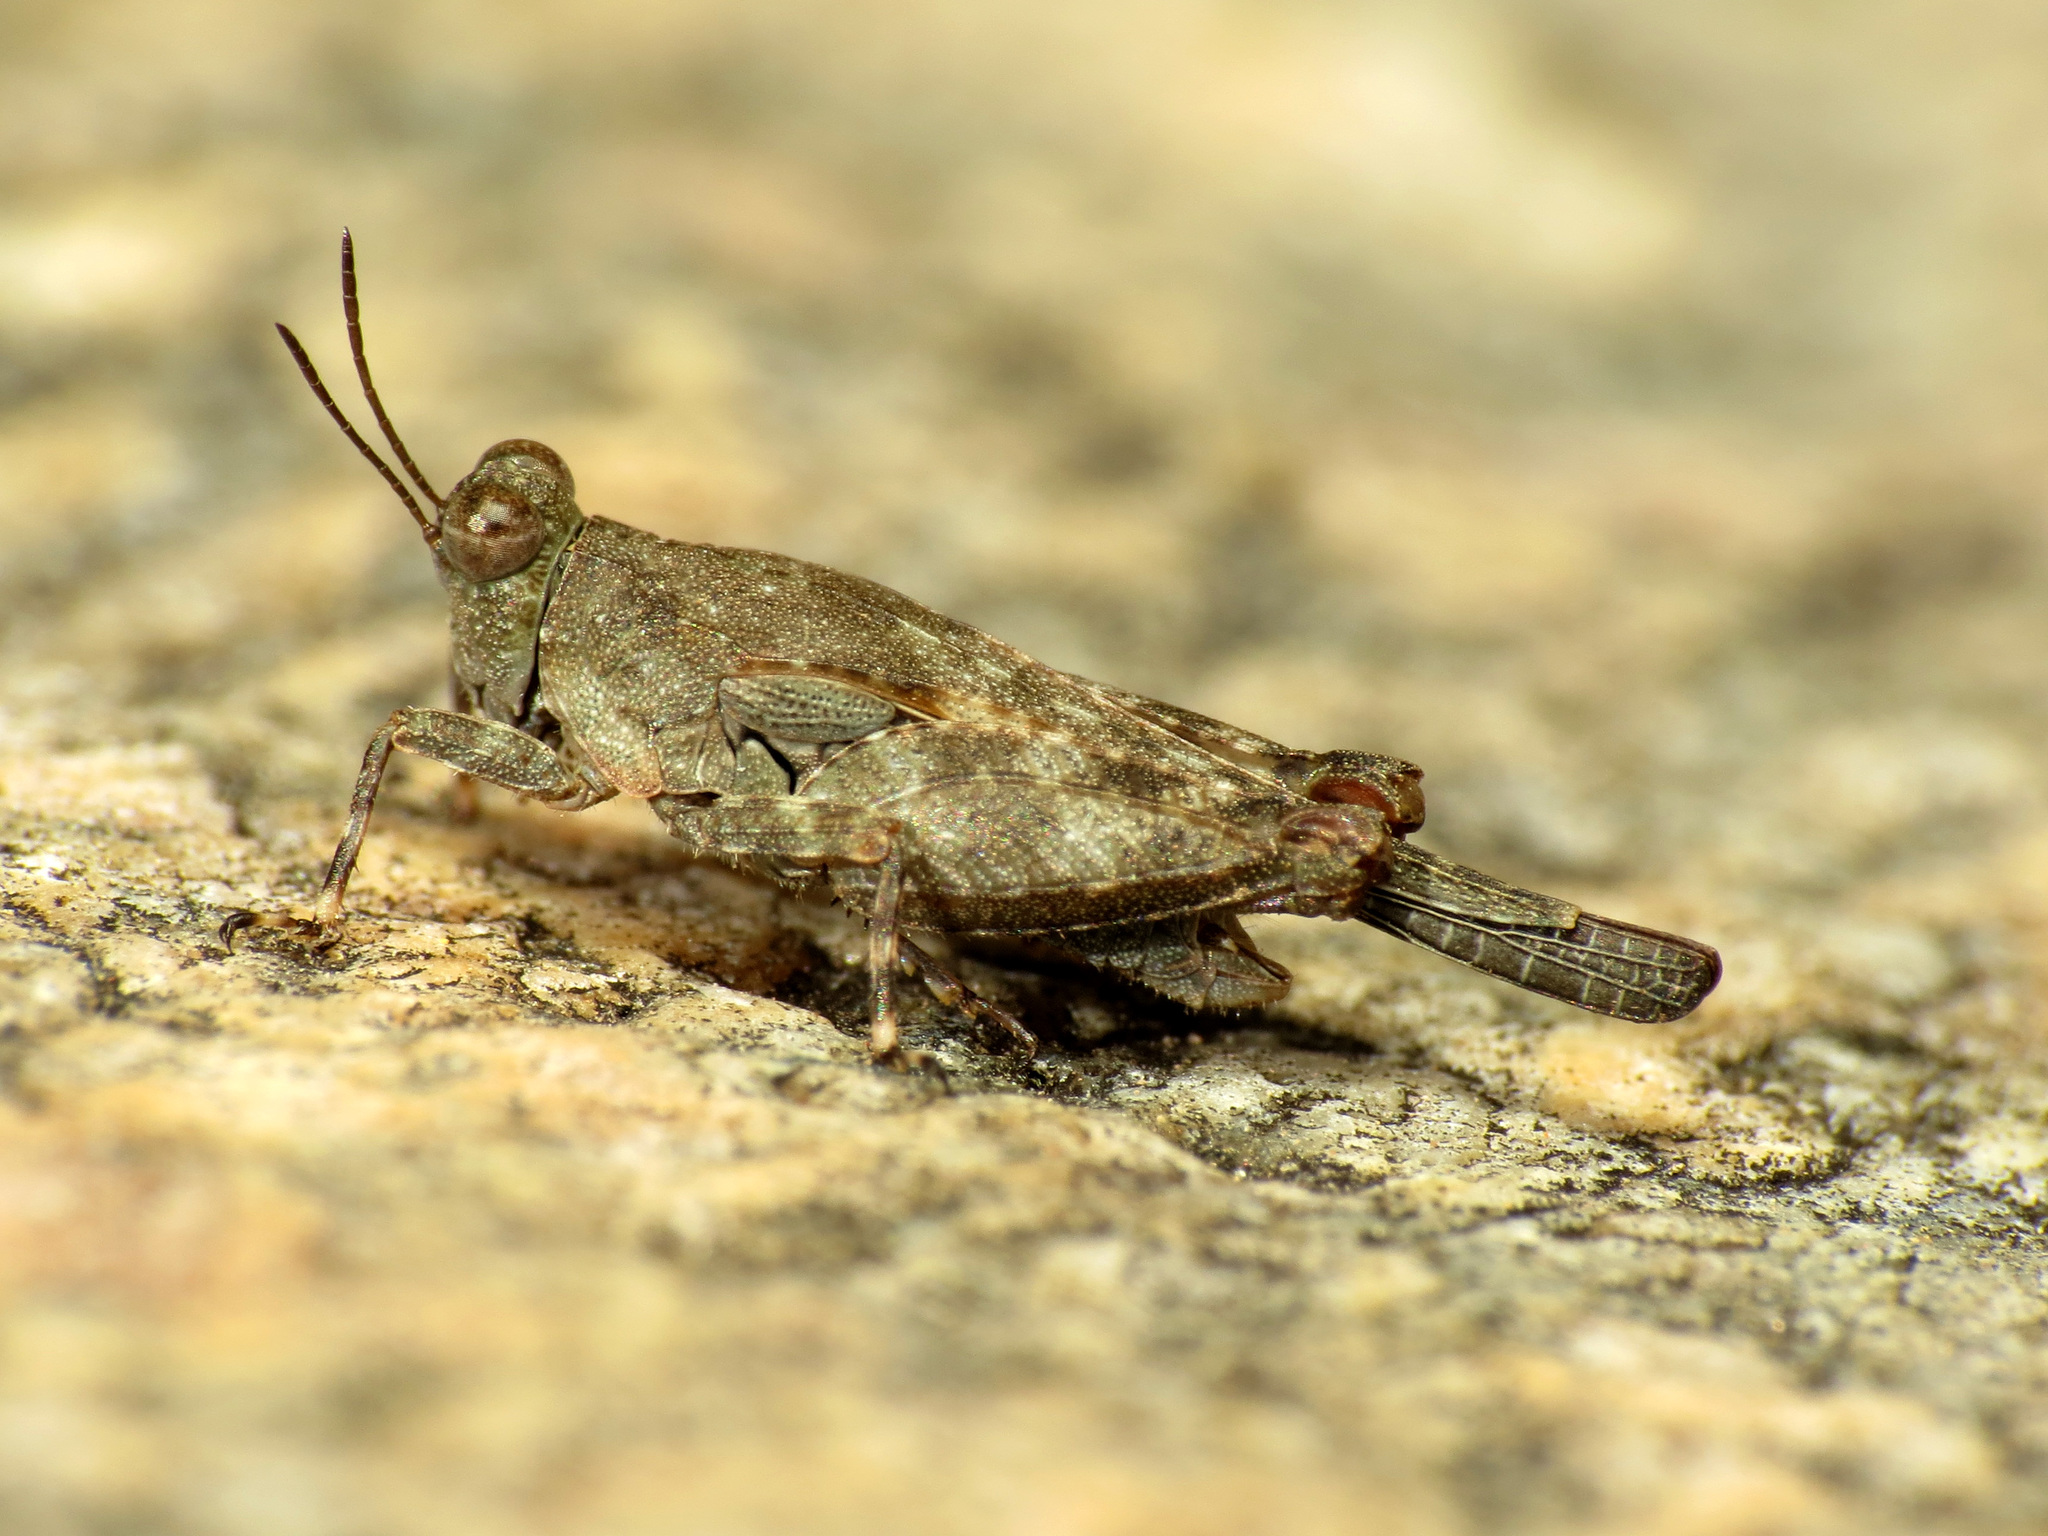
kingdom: Animalia
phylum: Arthropoda
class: Insecta
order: Orthoptera
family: Tetrigidae
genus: Paratettix
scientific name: Paratettix aztecus
